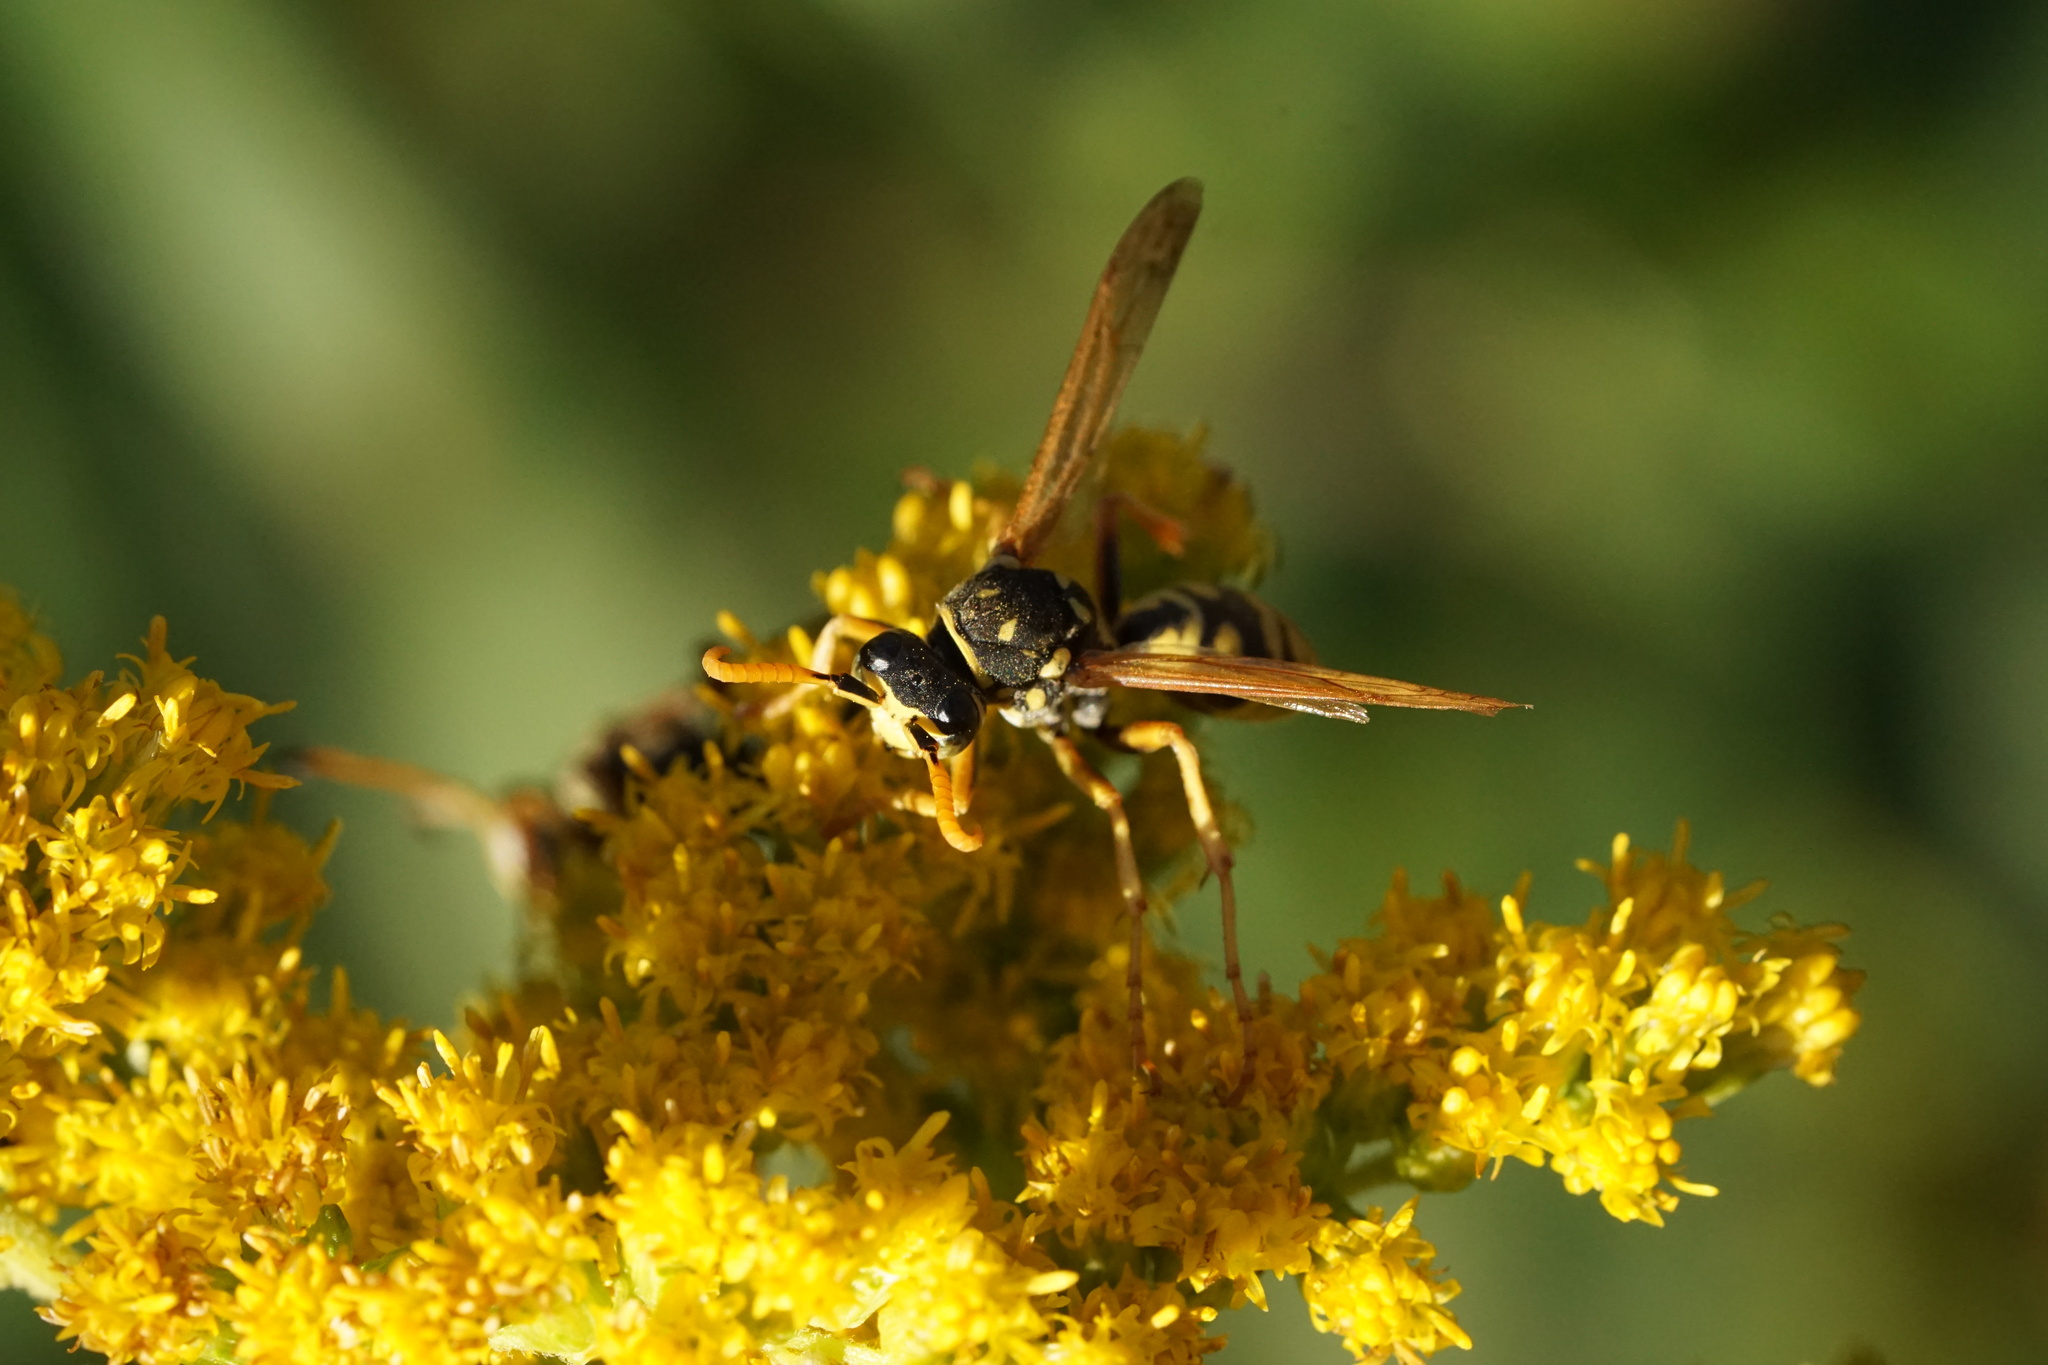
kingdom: Animalia
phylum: Arthropoda
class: Insecta
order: Hymenoptera
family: Eumenidae
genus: Polistes
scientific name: Polistes dominula
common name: Paper wasp
